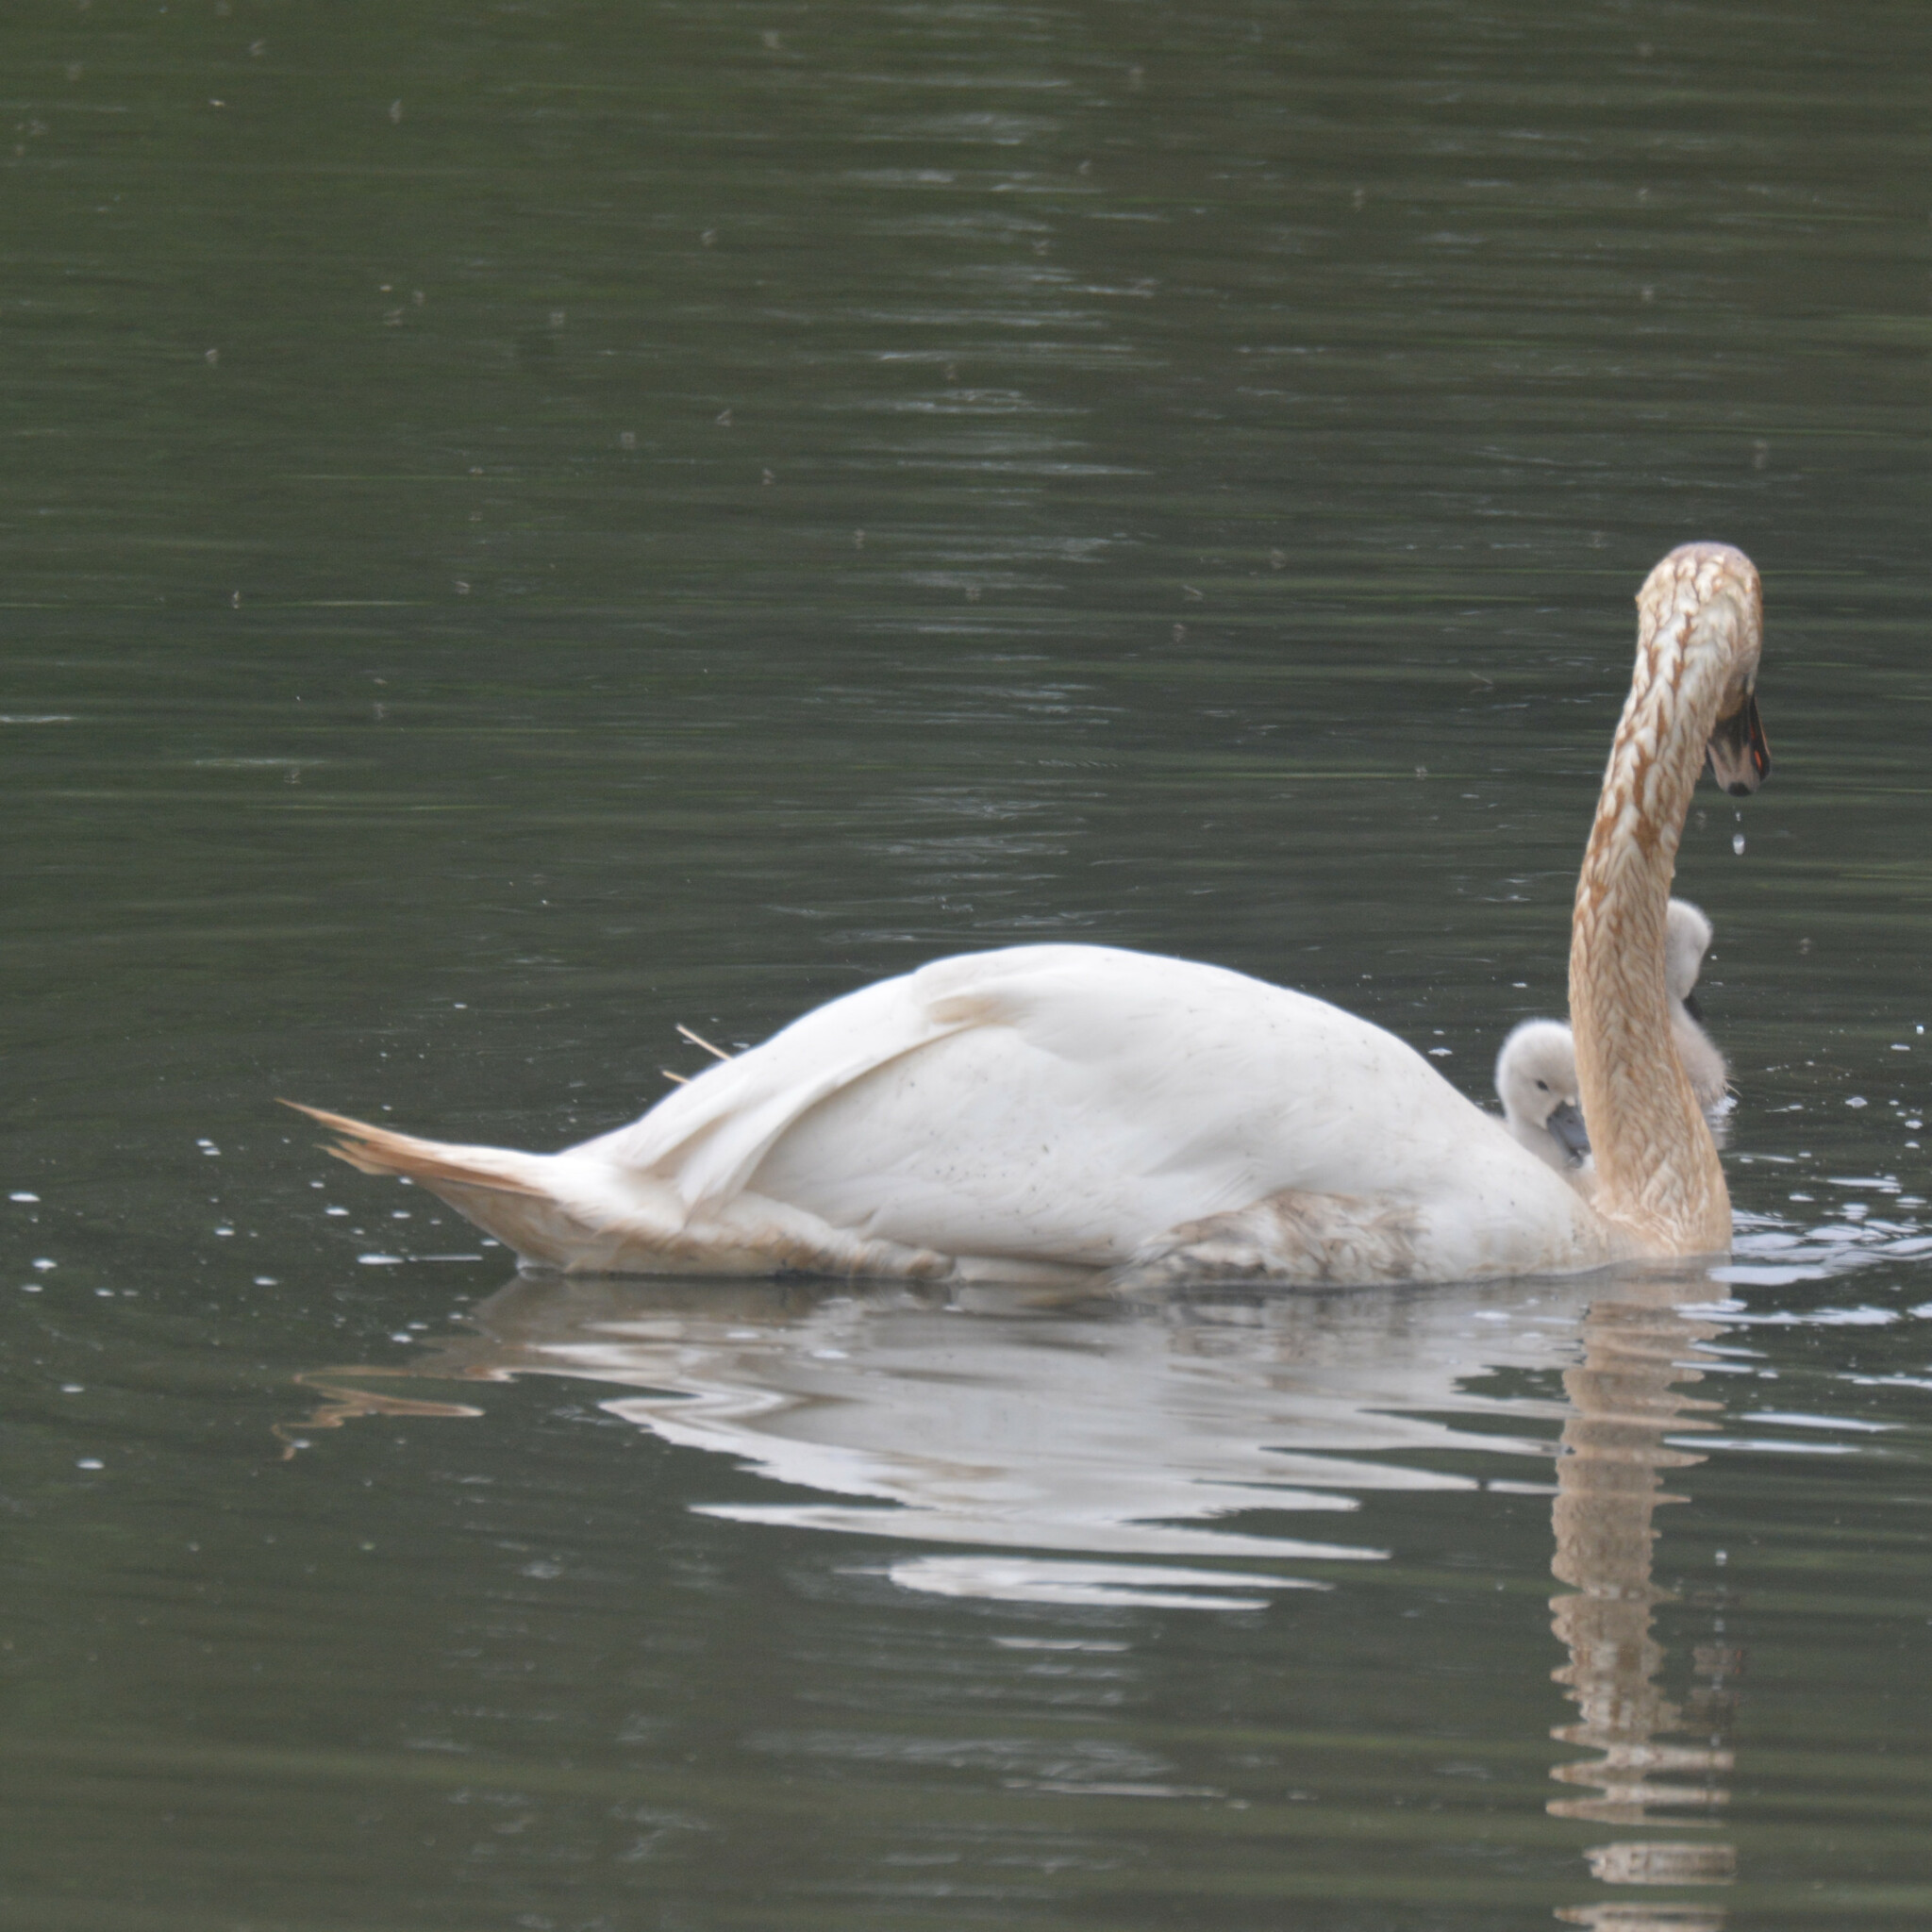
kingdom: Animalia
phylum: Chordata
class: Aves
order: Anseriformes
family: Anatidae
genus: Cygnus
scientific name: Cygnus olor
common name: Mute swan
